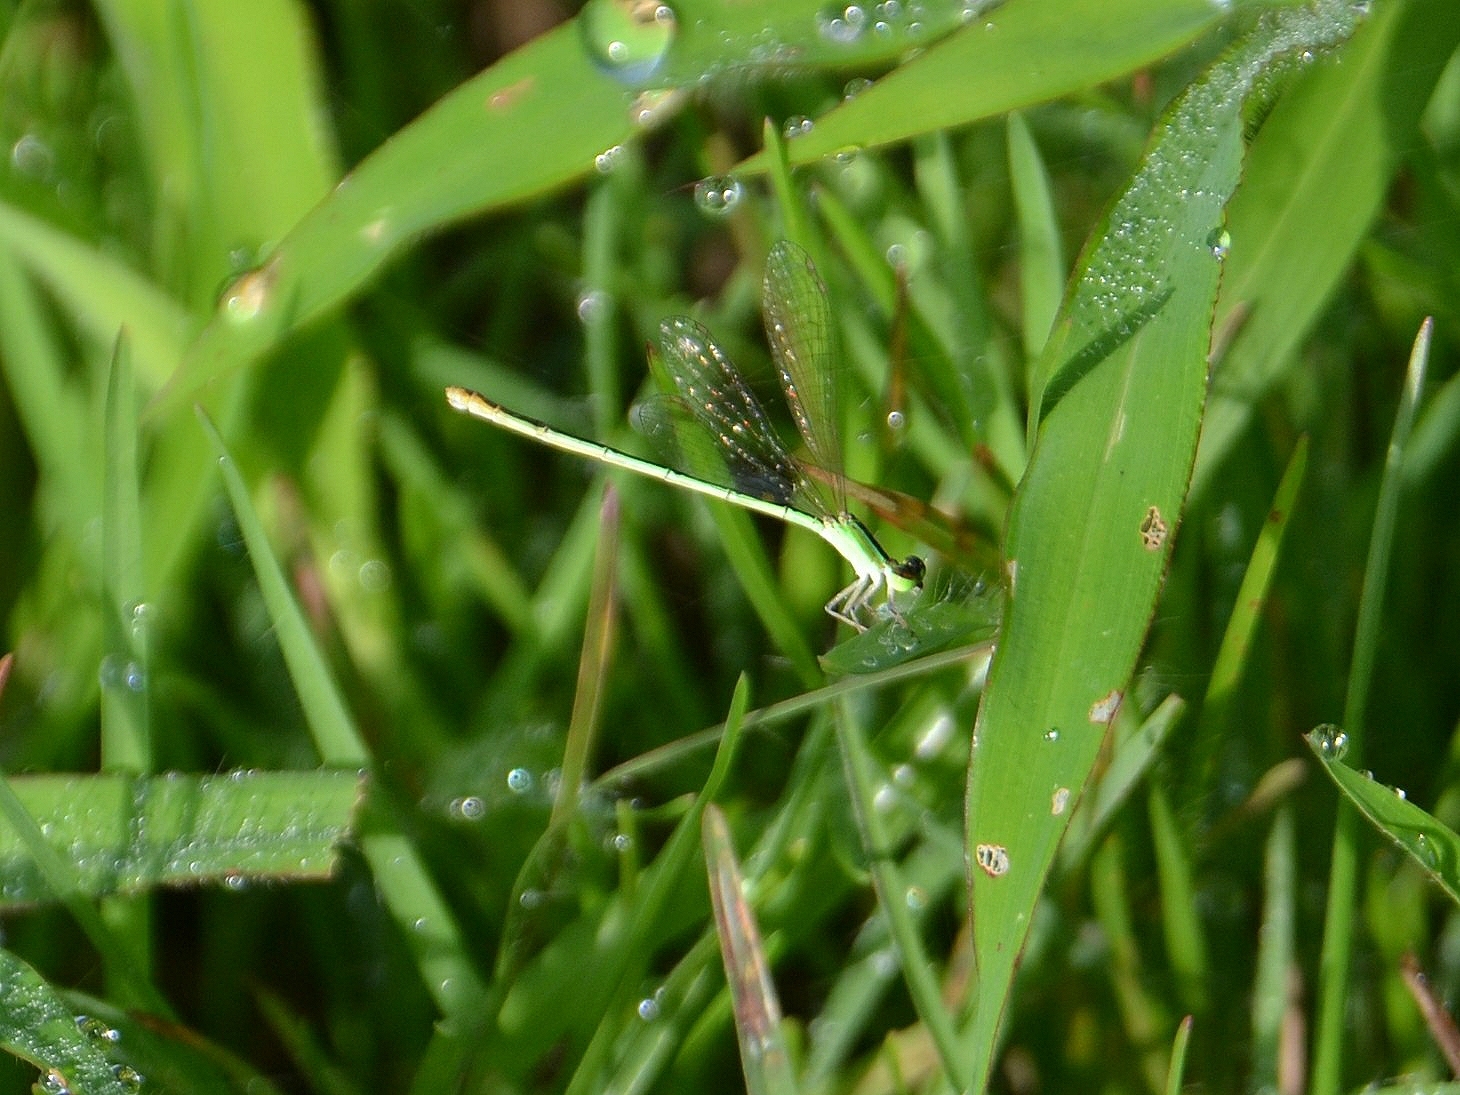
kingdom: Animalia
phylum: Arthropoda
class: Insecta
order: Odonata
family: Coenagrionidae
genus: Agriocnemis
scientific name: Agriocnemis pygmaea
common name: Pygmy wisp
